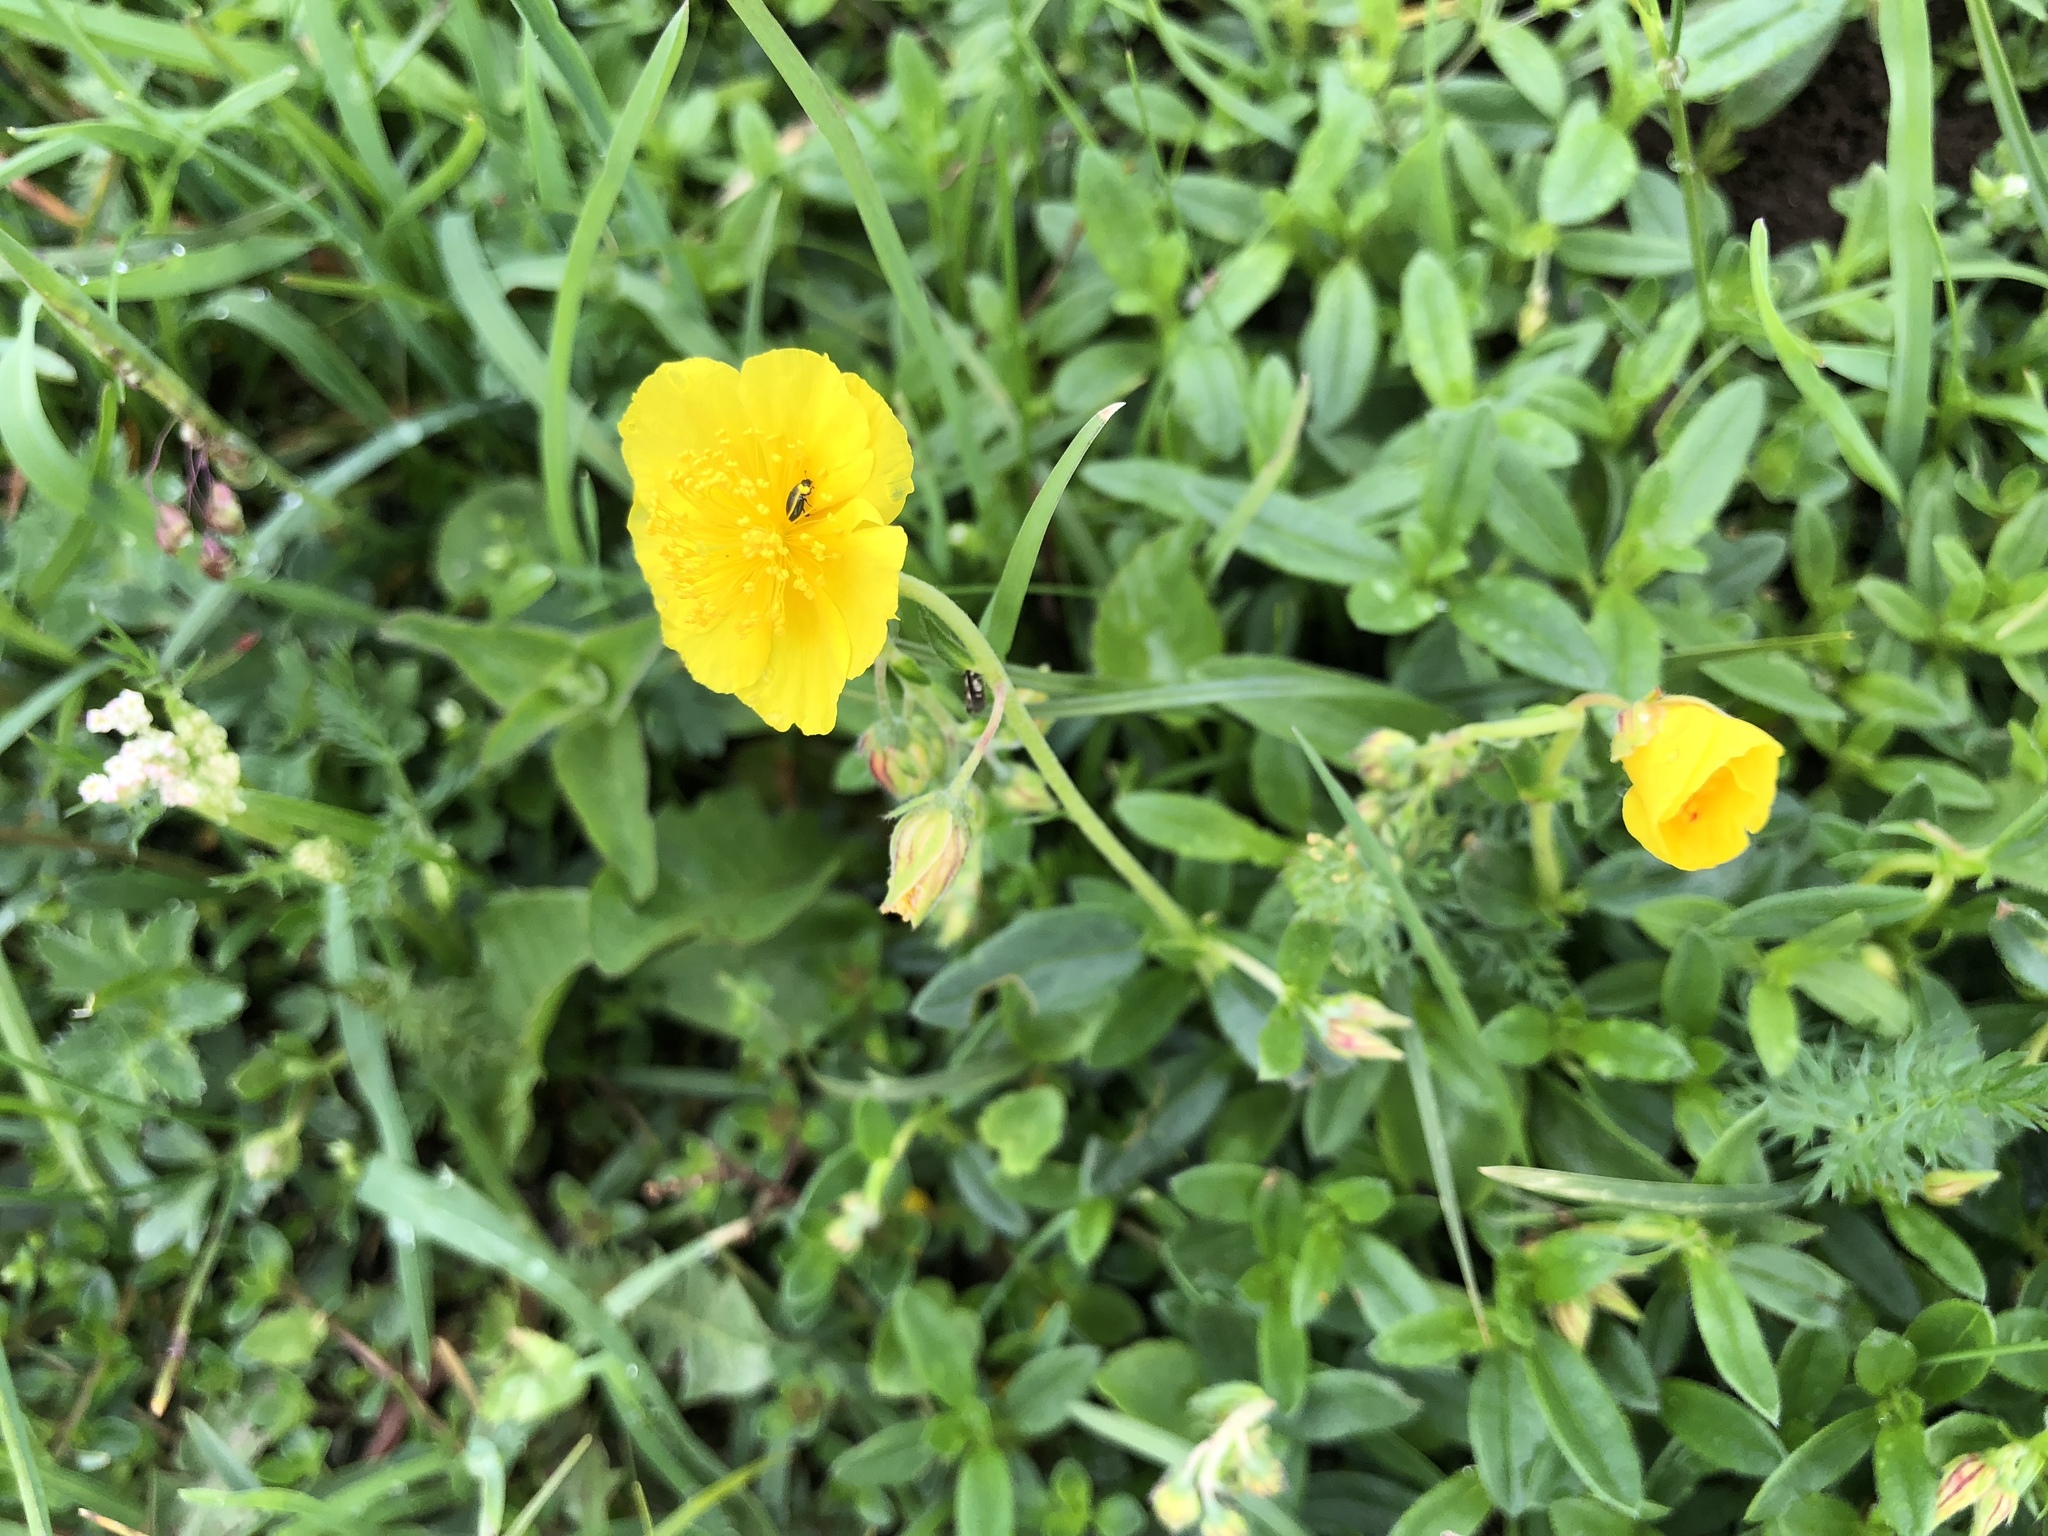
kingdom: Plantae
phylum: Tracheophyta
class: Magnoliopsida
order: Malvales
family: Cistaceae
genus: Helianthemum
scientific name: Helianthemum nummularium
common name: Common rock-rose
